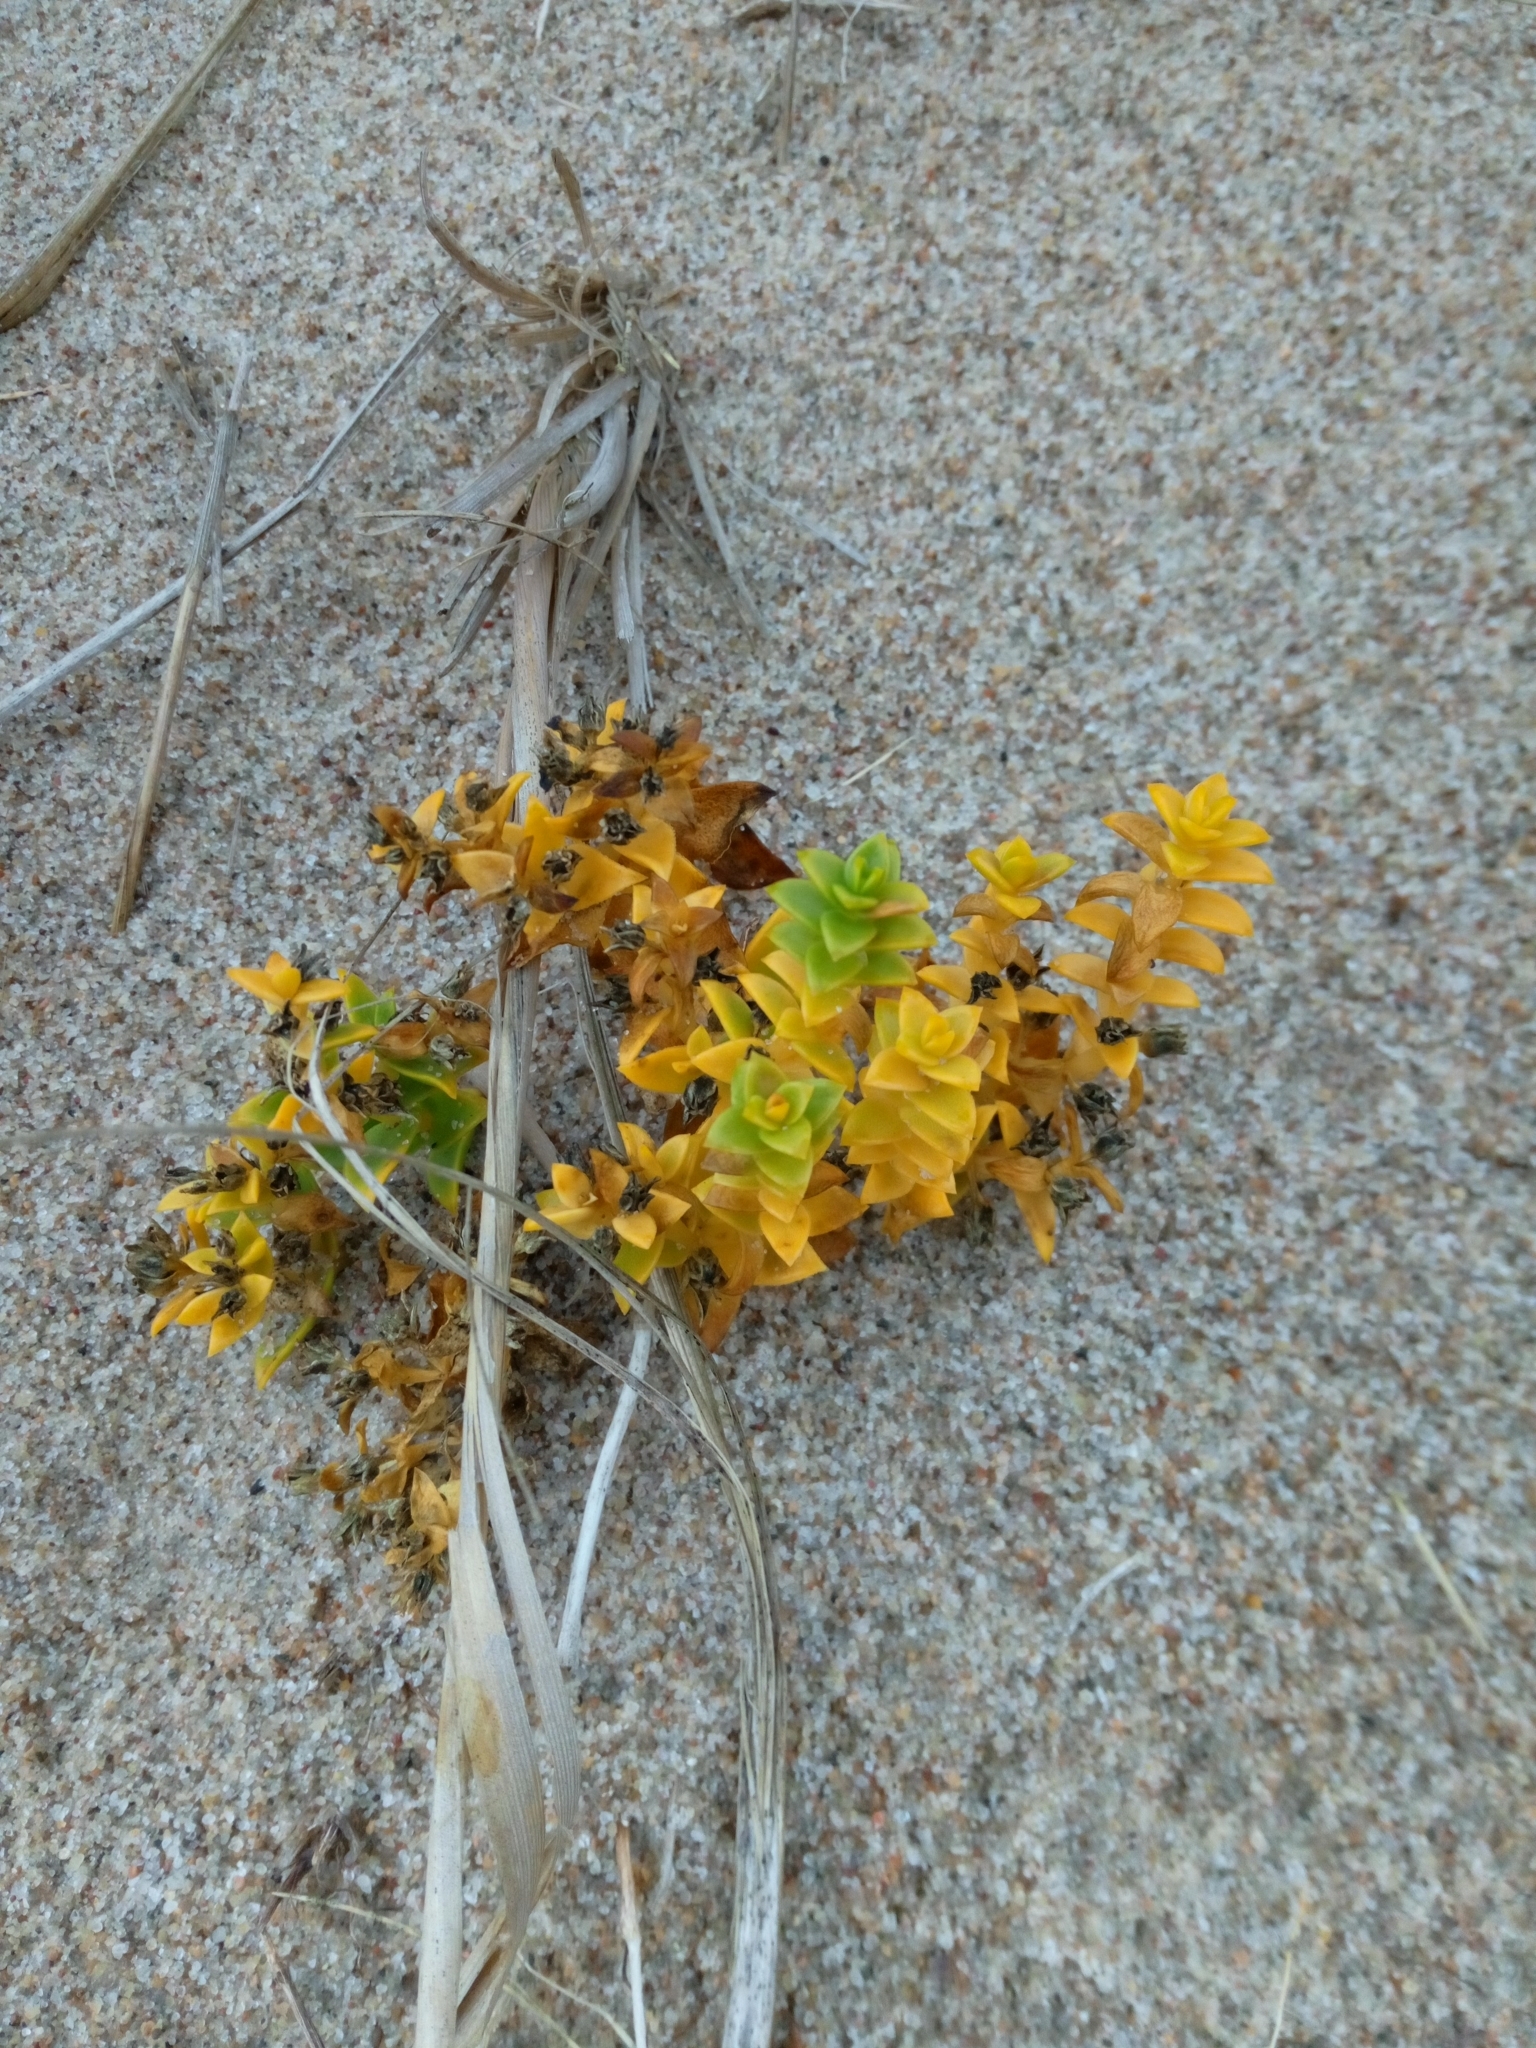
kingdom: Plantae
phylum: Tracheophyta
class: Magnoliopsida
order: Caryophyllales
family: Caryophyllaceae
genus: Honckenya
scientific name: Honckenya peploides
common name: Sea sandwort
